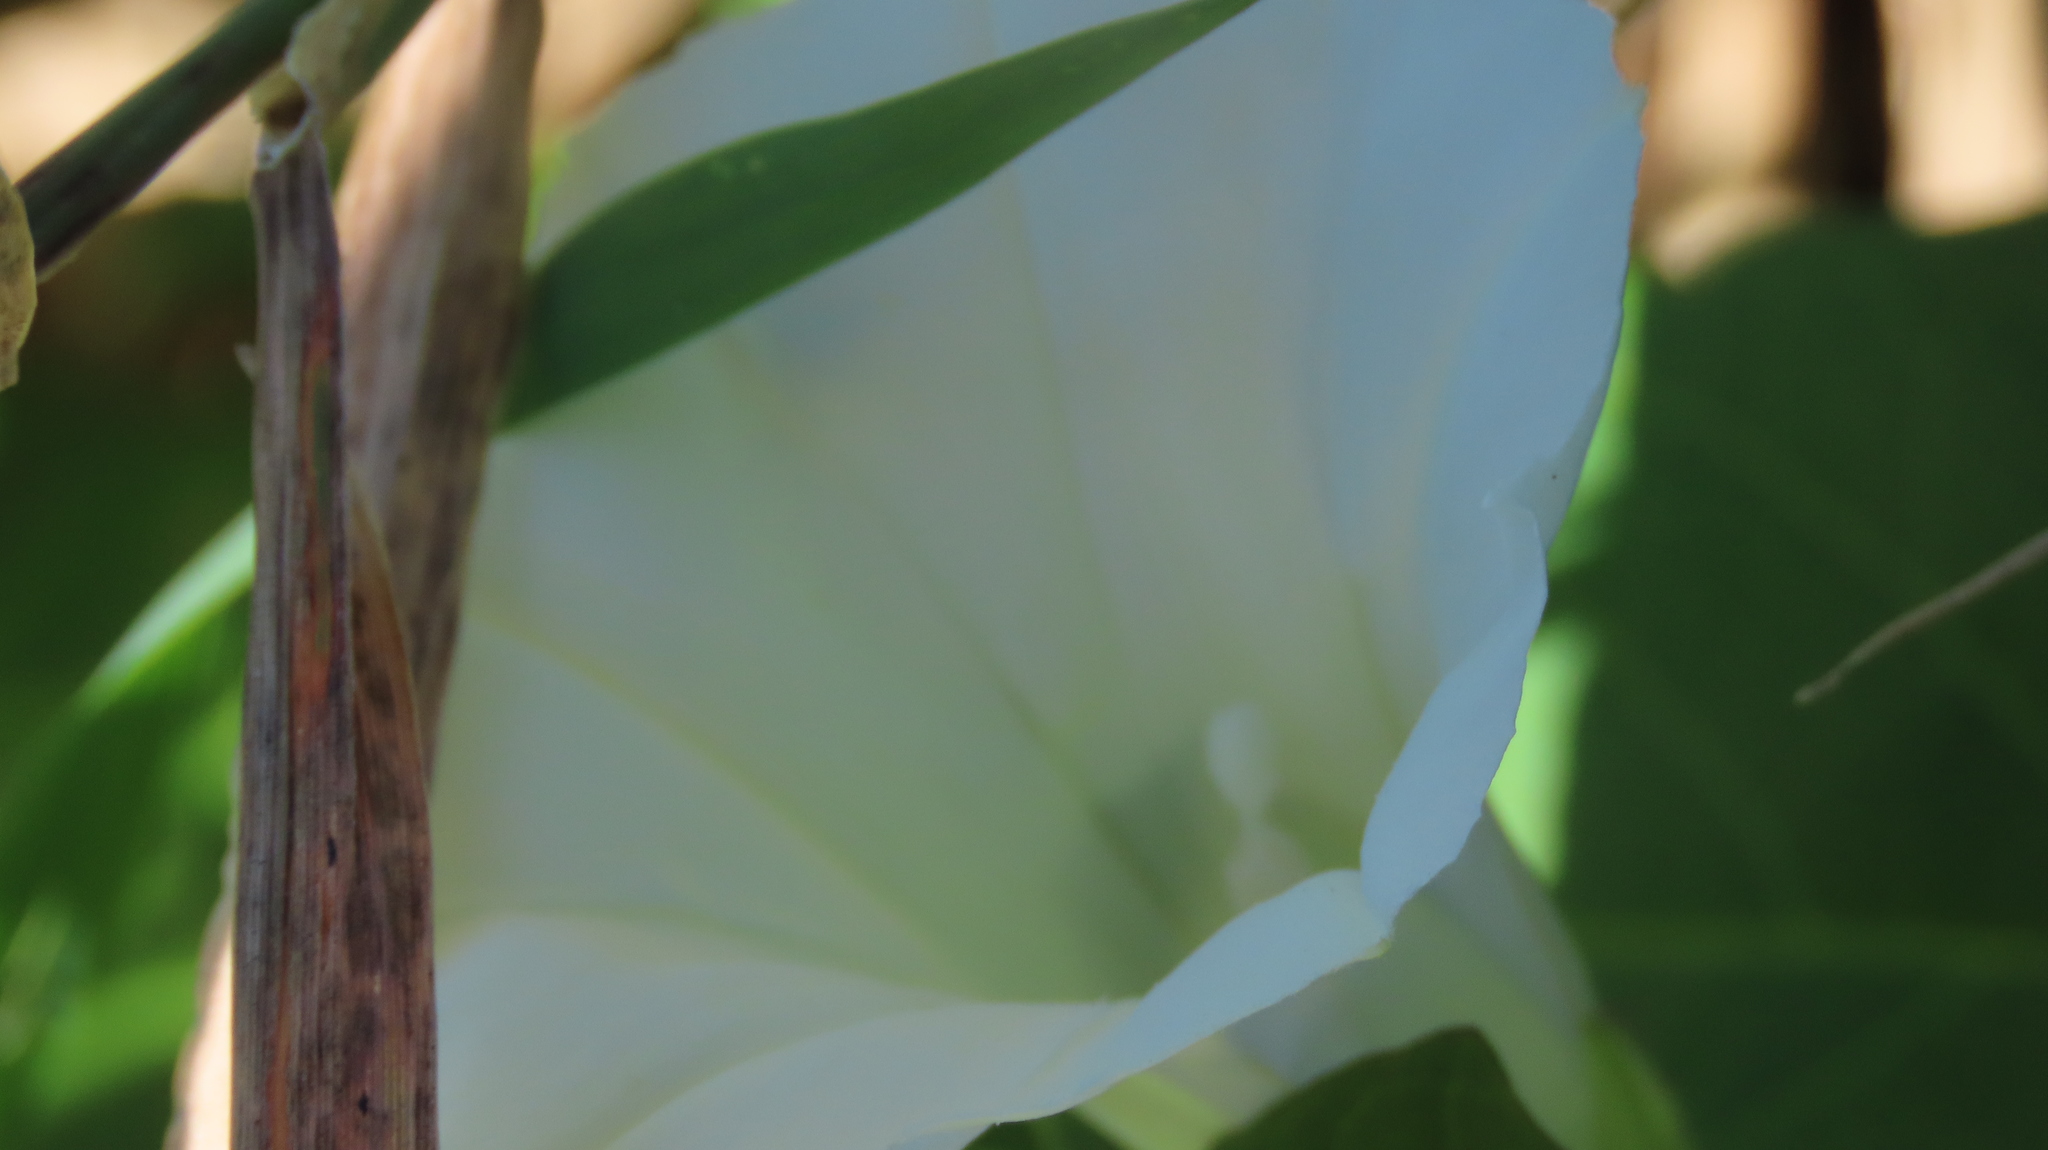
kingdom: Plantae
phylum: Tracheophyta
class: Magnoliopsida
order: Solanales
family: Convolvulaceae
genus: Calystegia
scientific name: Calystegia sepium
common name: Hedge bindweed
